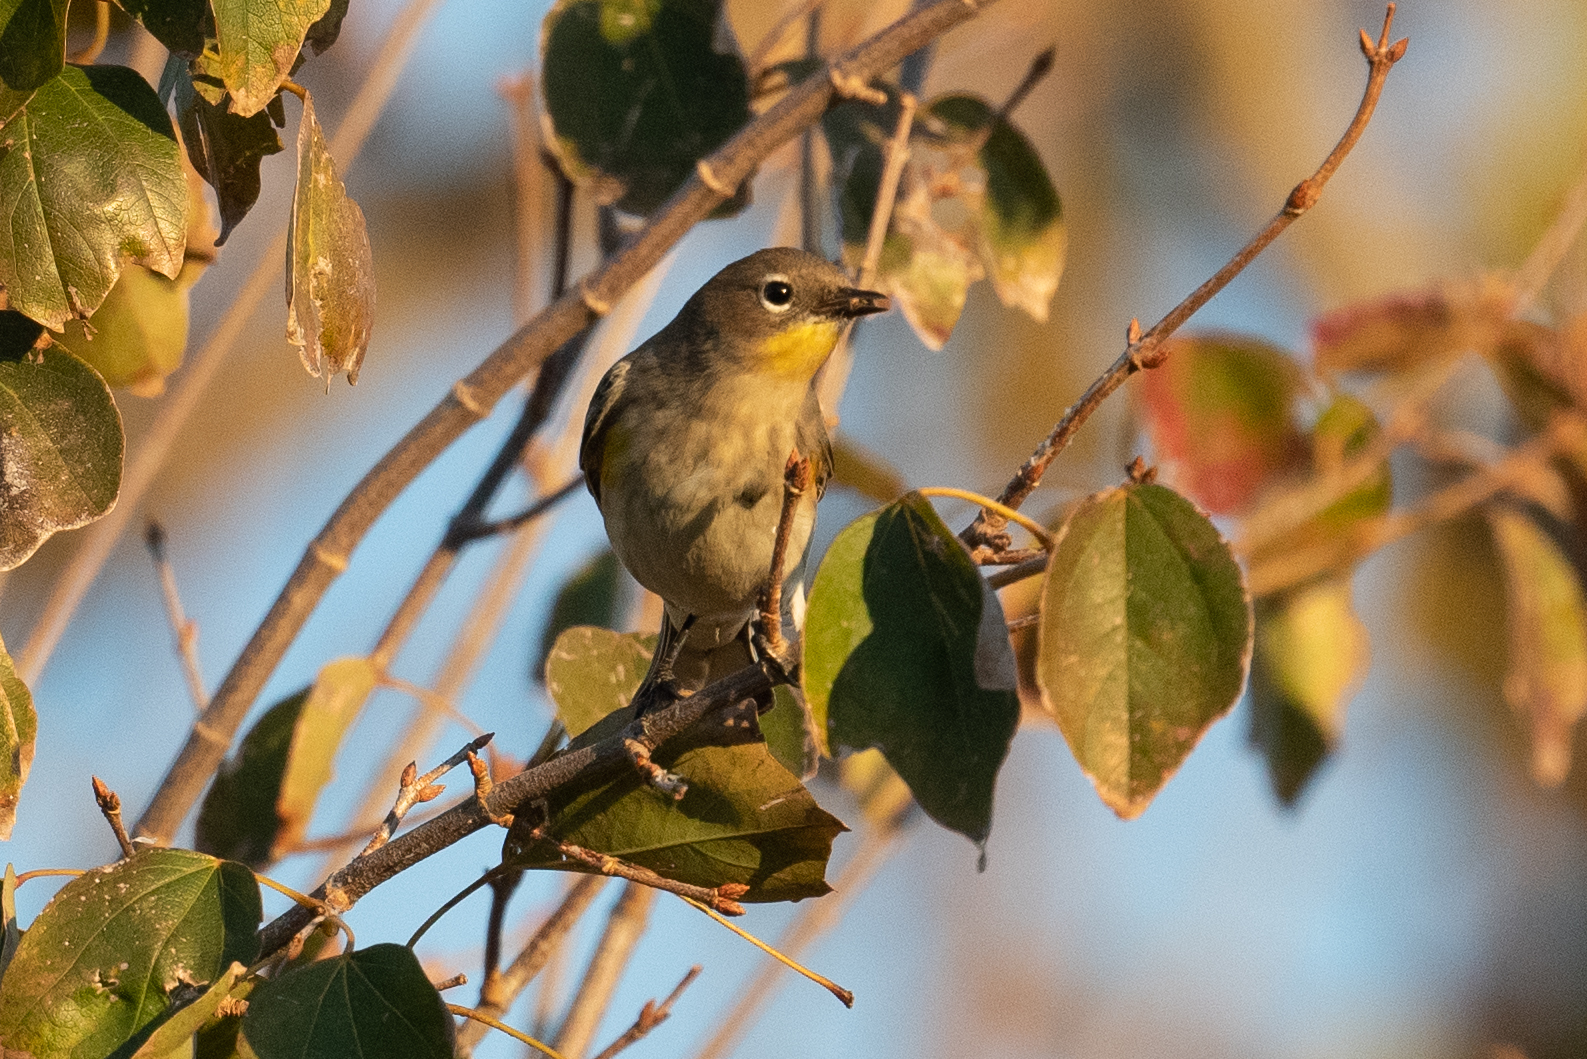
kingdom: Animalia
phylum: Chordata
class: Aves
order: Passeriformes
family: Parulidae
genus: Setophaga
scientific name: Setophaga auduboni
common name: Audubon's warbler
